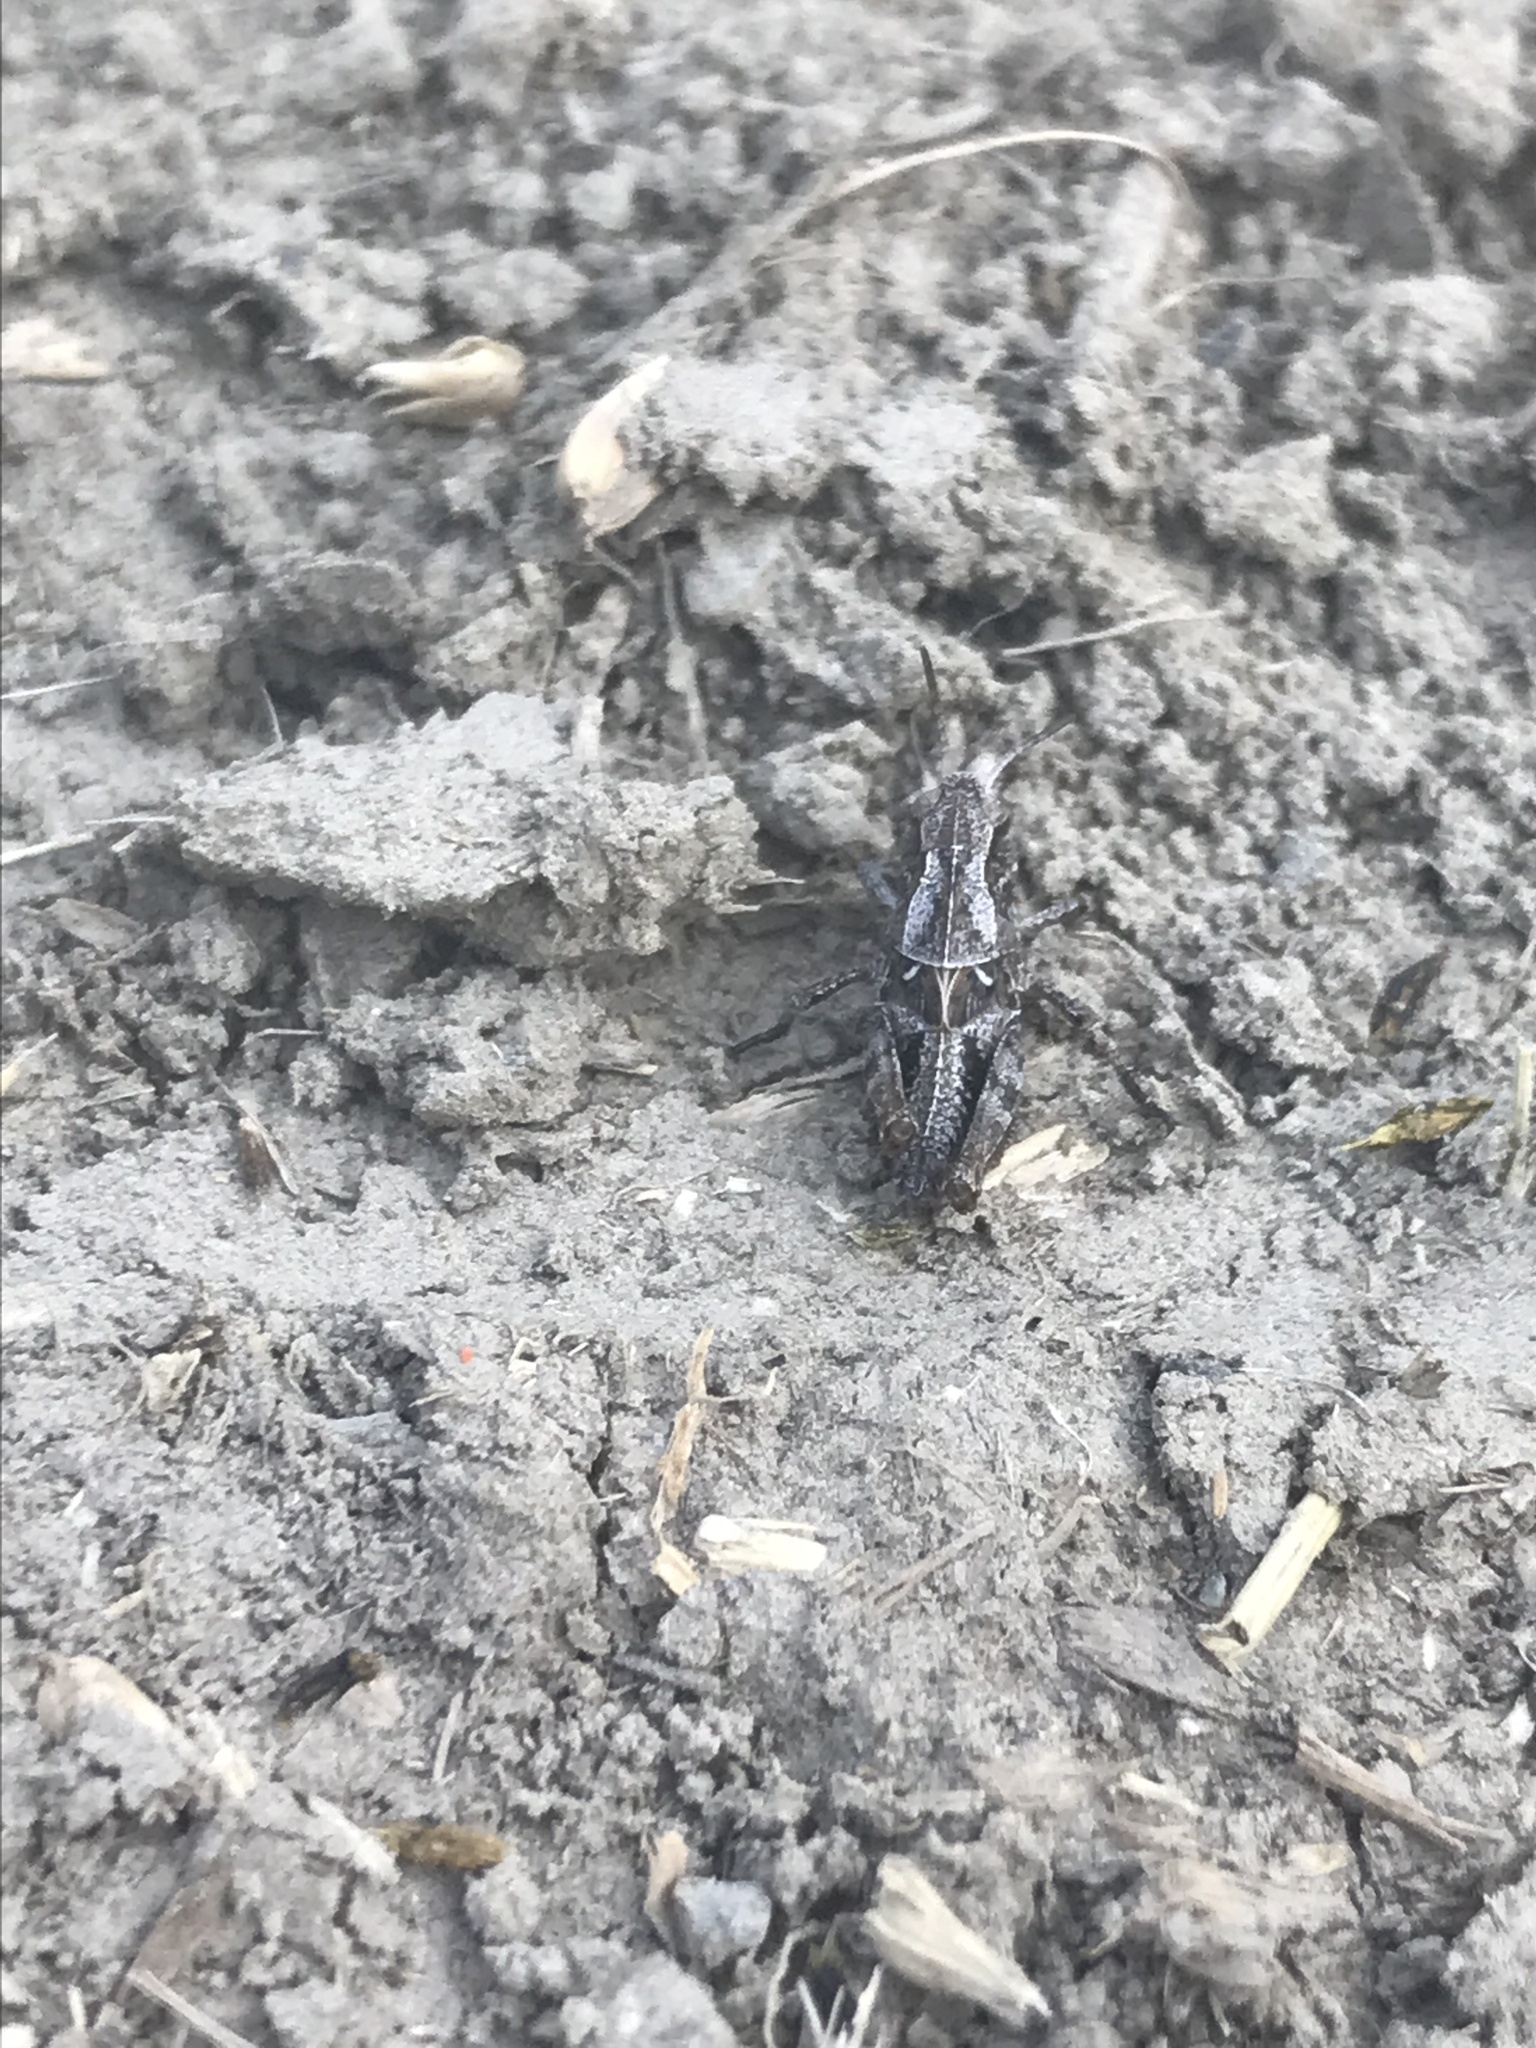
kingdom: Animalia
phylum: Arthropoda
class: Insecta
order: Orthoptera
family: Acrididae
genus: Camnula
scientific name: Camnula pellucida
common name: Clear-winged grasshopper
